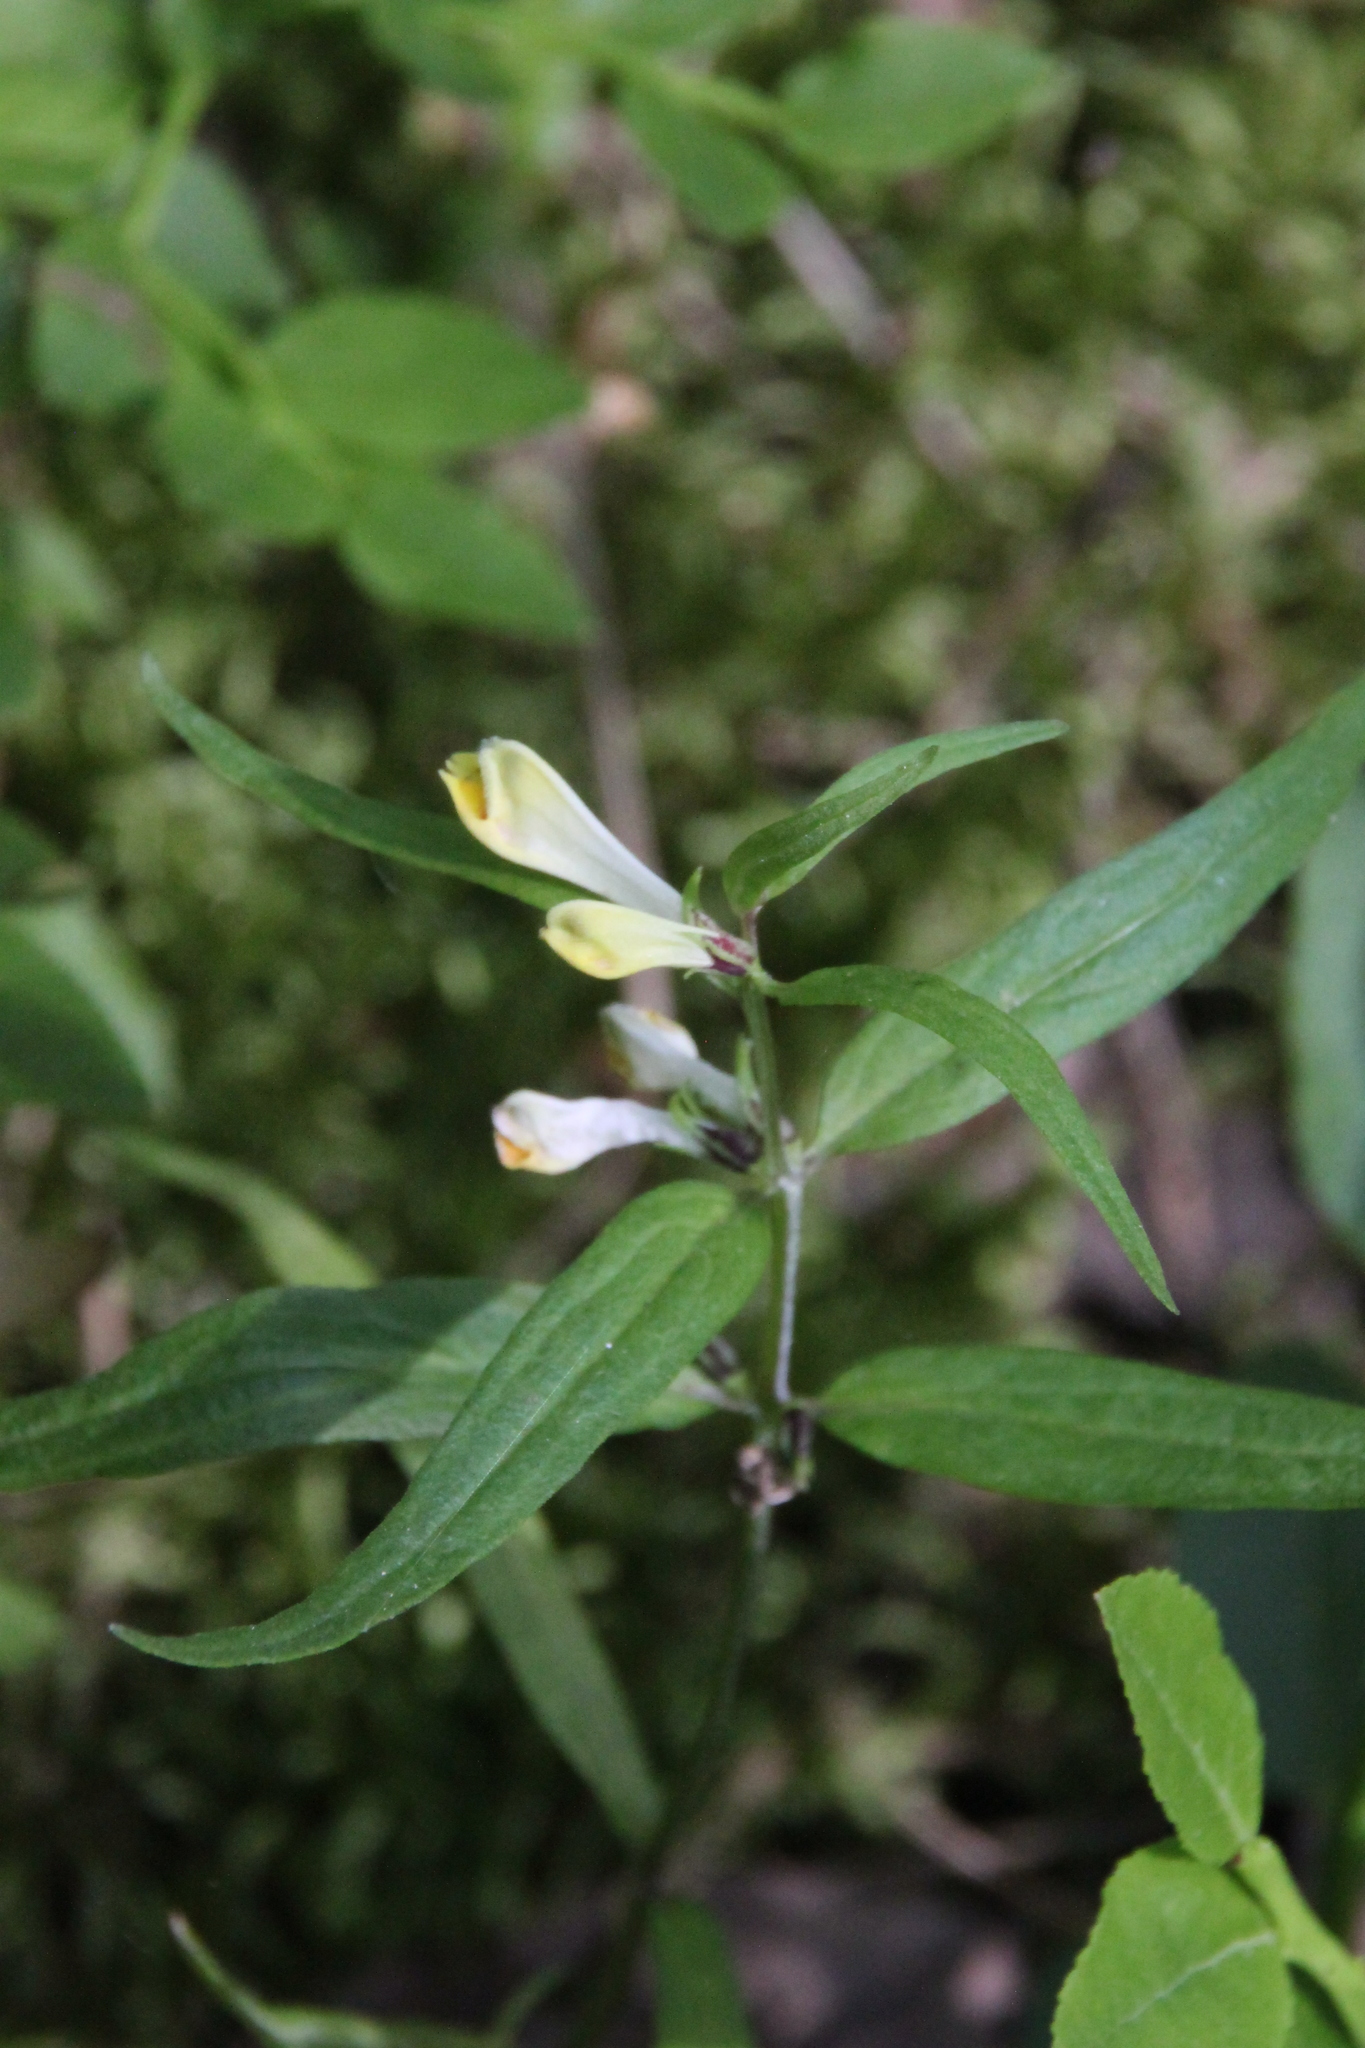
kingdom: Plantae
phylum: Tracheophyta
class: Magnoliopsida
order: Lamiales
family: Orobanchaceae
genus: Melampyrum
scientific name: Melampyrum pratense
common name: Common cow-wheat
